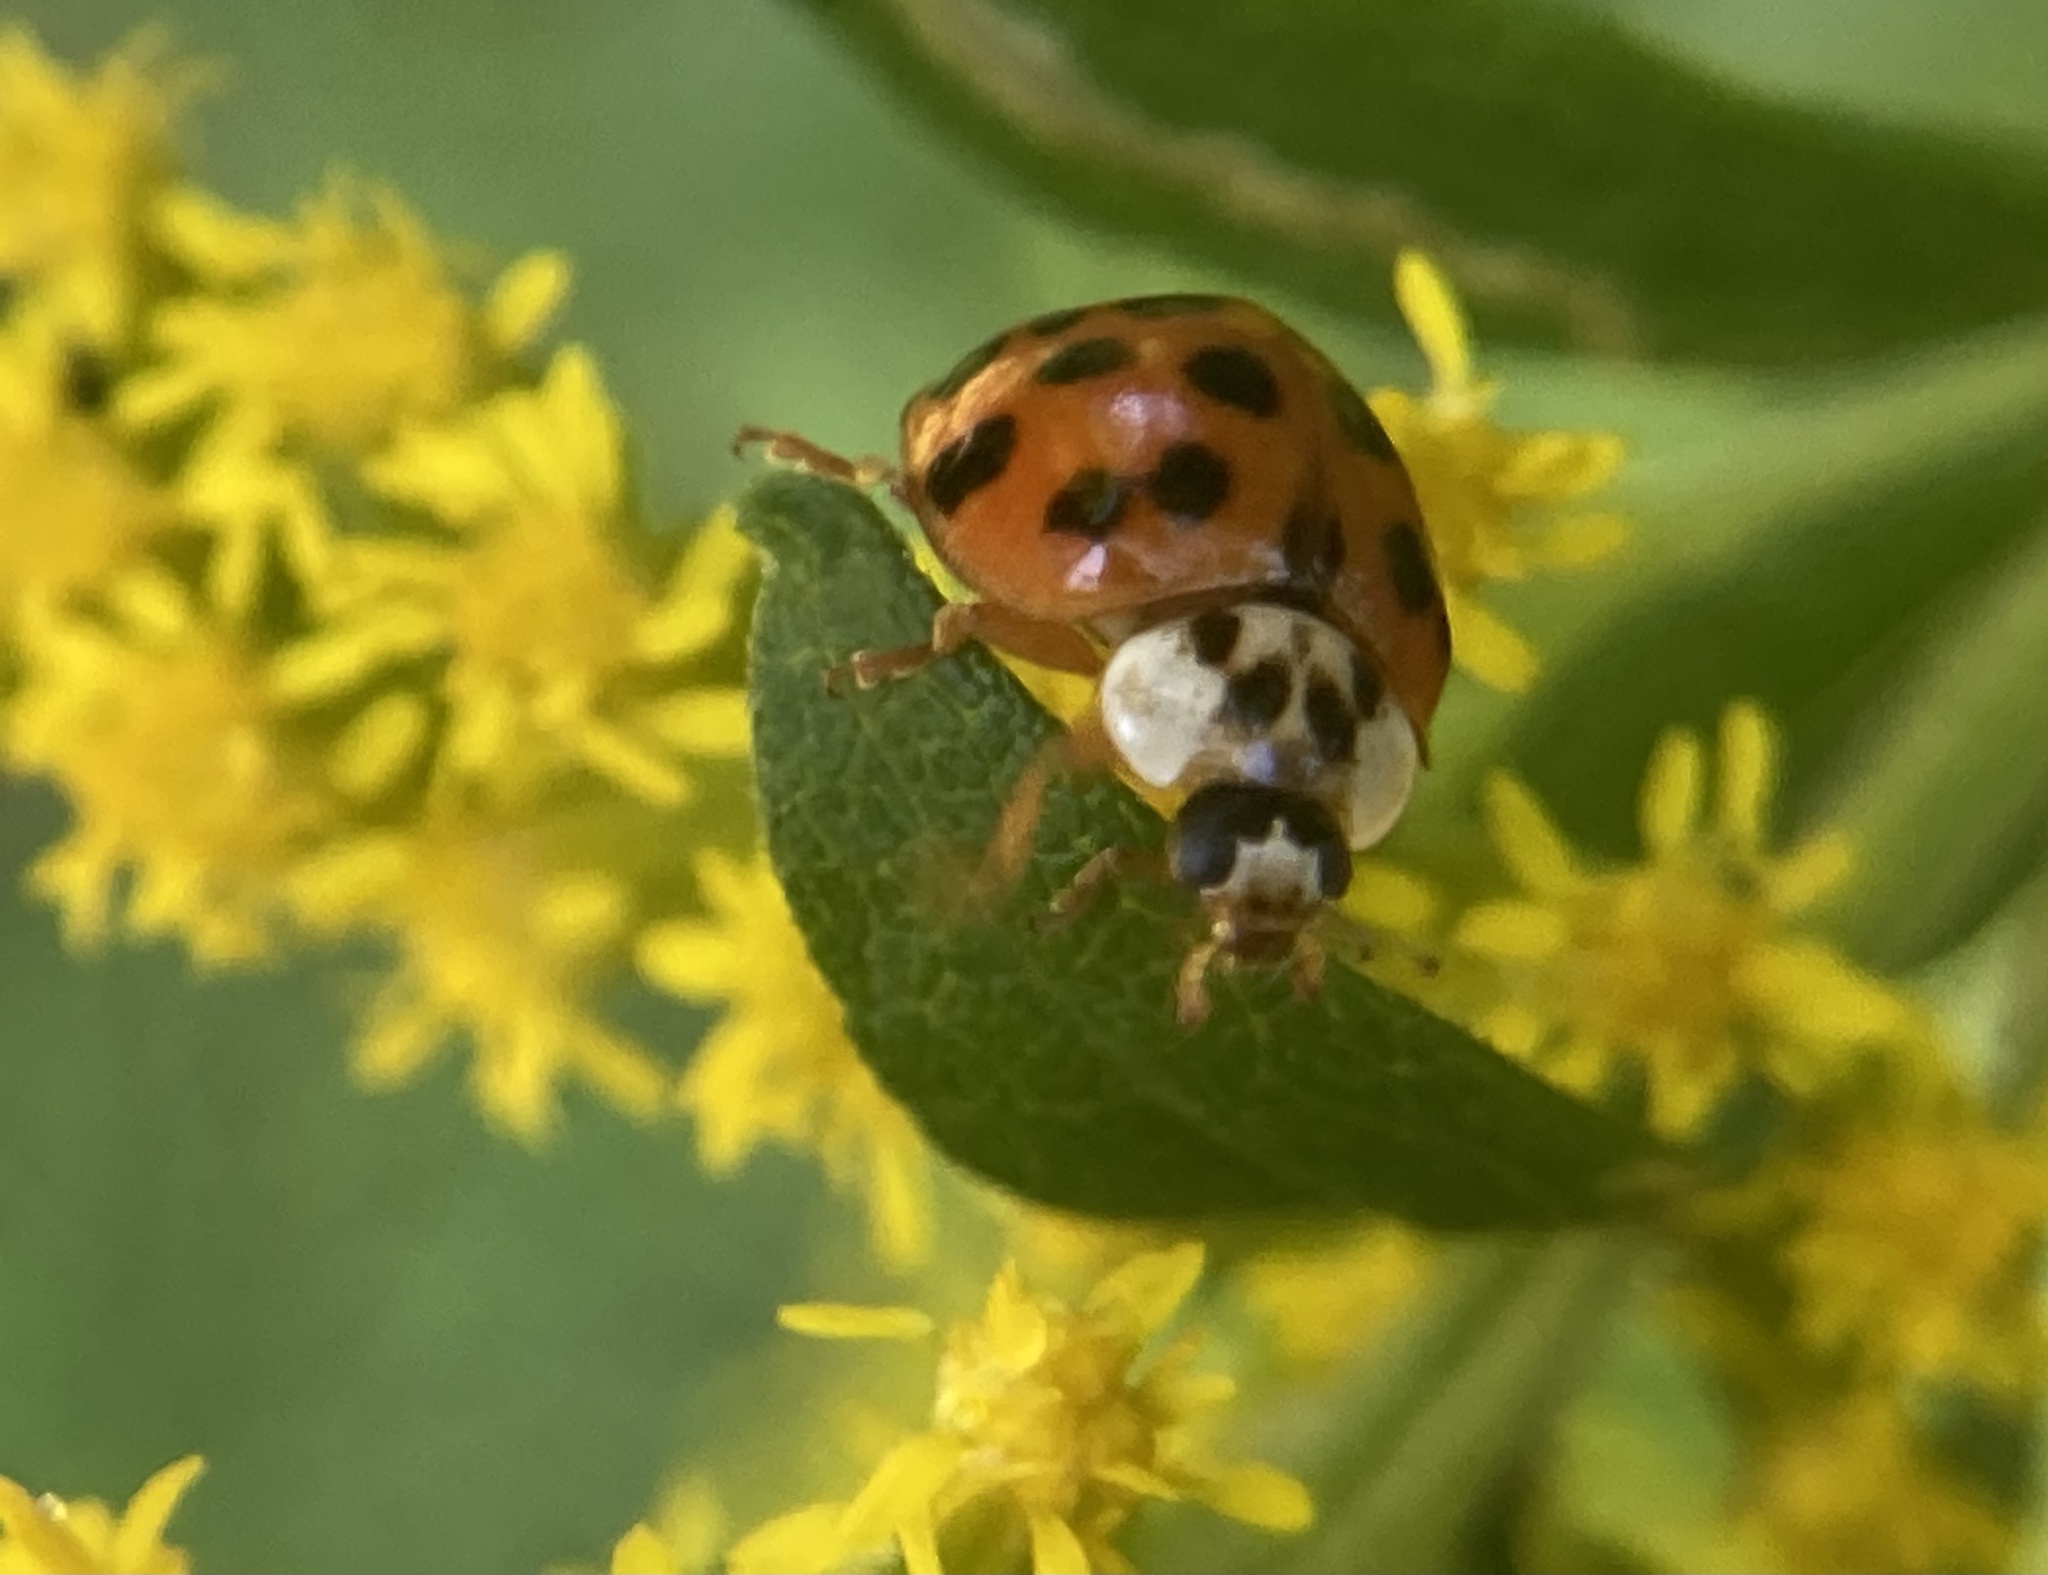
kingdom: Animalia
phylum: Arthropoda
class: Insecta
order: Coleoptera
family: Coccinellidae
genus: Harmonia
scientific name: Harmonia axyridis
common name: Harlequin ladybird
